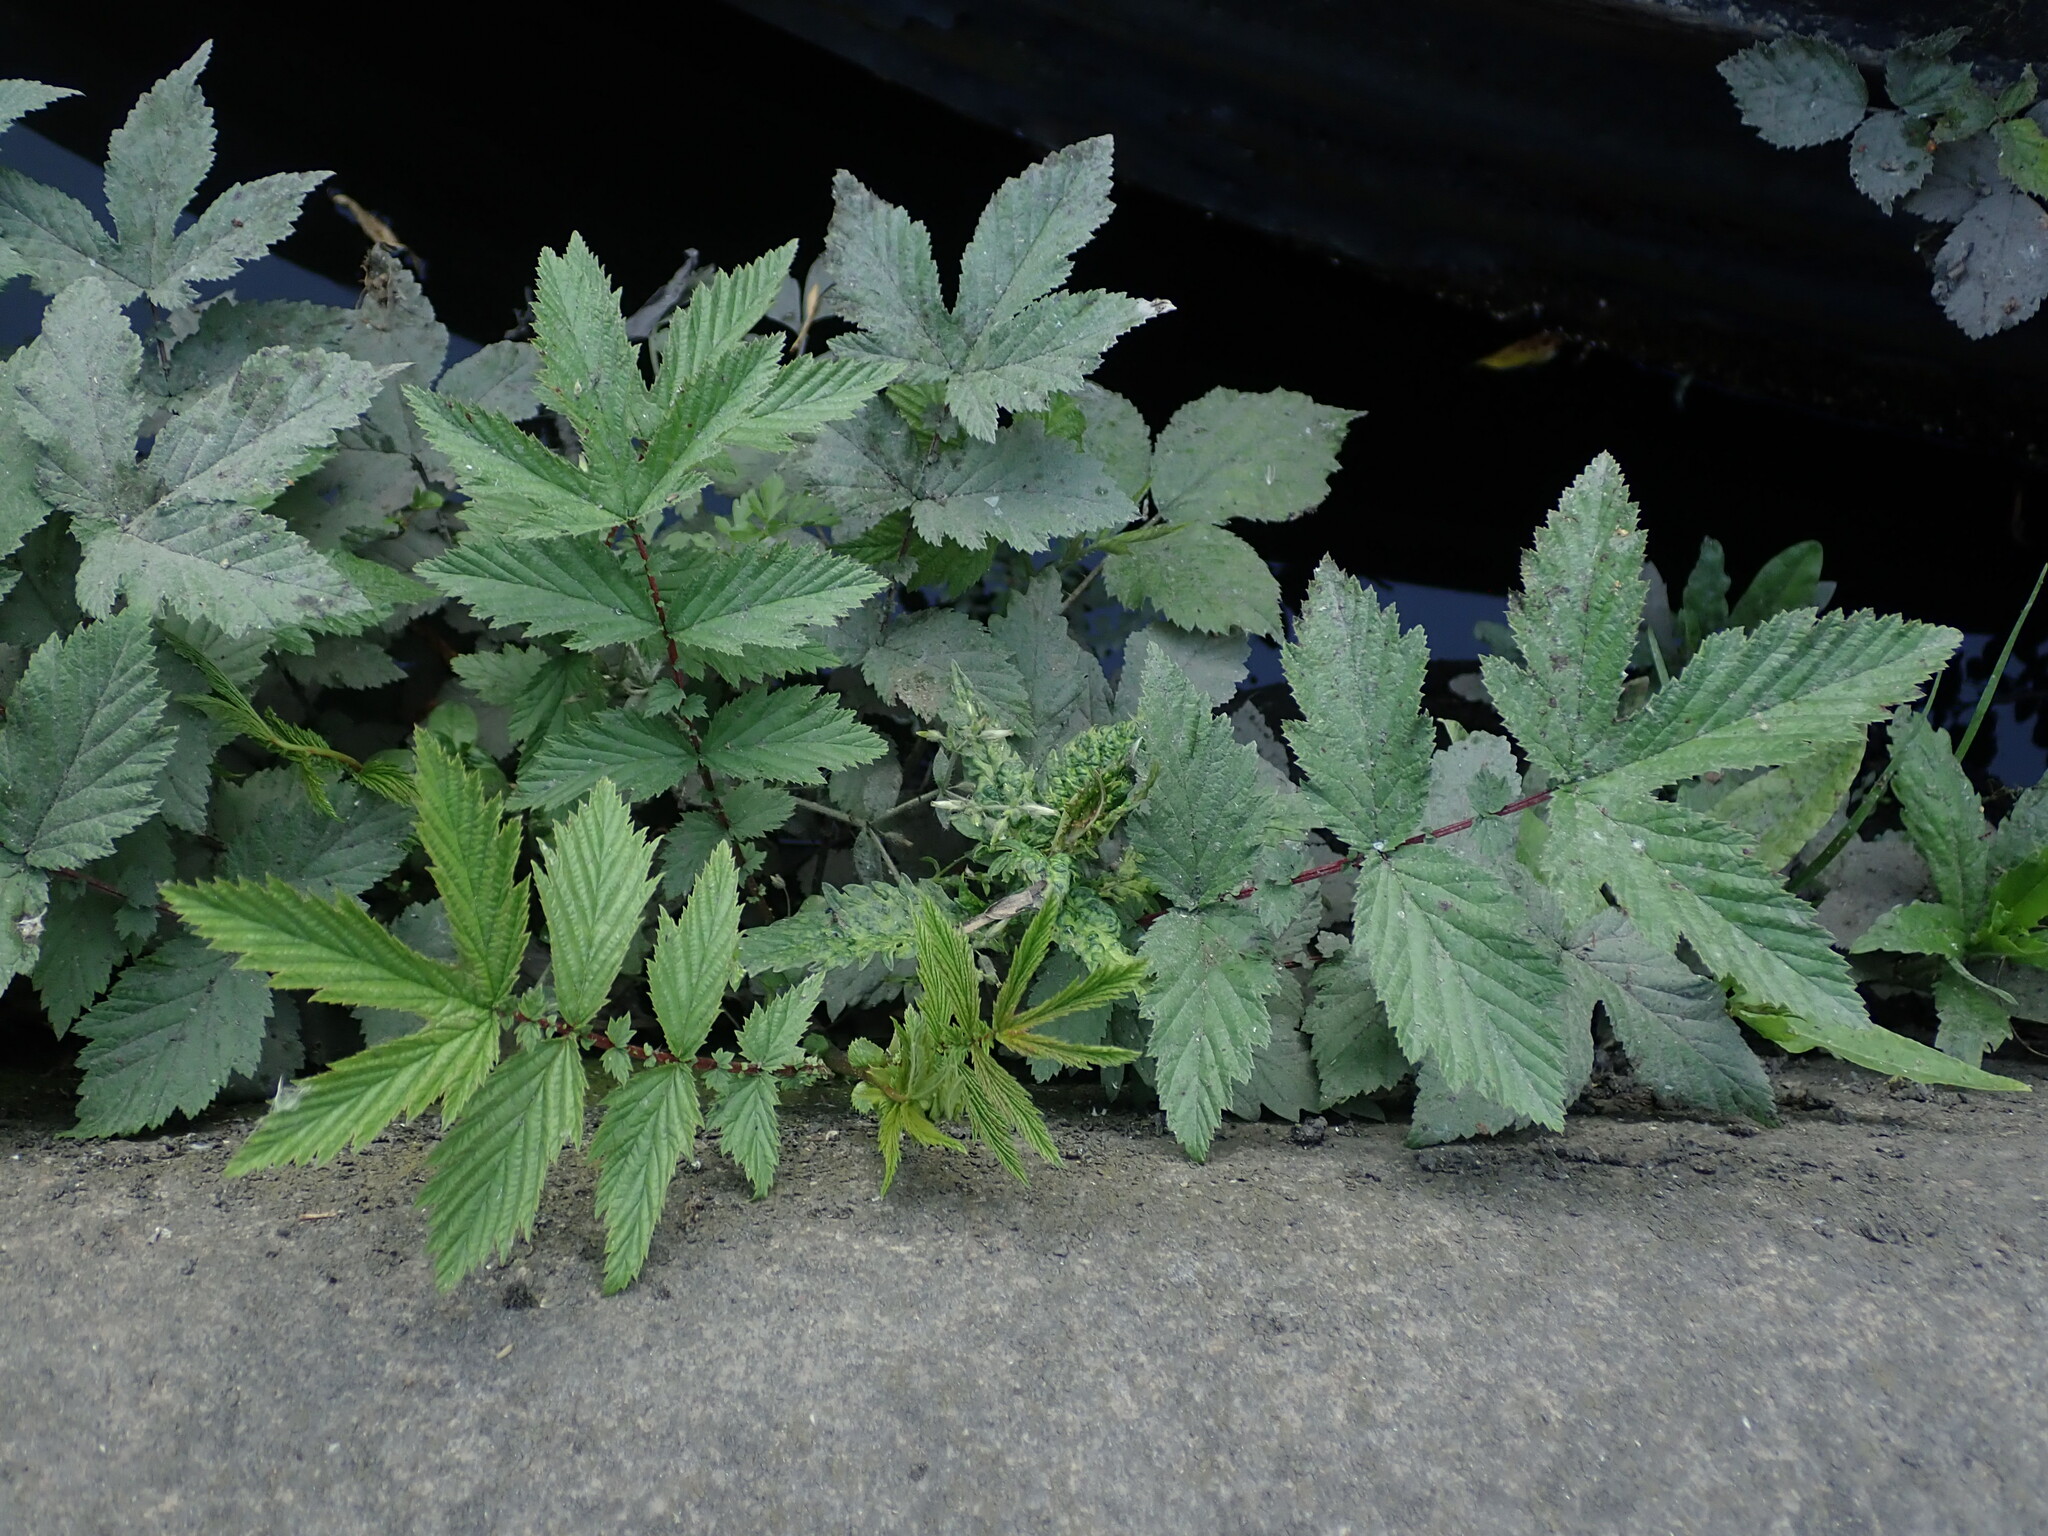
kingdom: Plantae
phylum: Tracheophyta
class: Magnoliopsida
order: Rosales
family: Rosaceae
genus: Filipendula
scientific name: Filipendula ulmaria
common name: Meadowsweet
